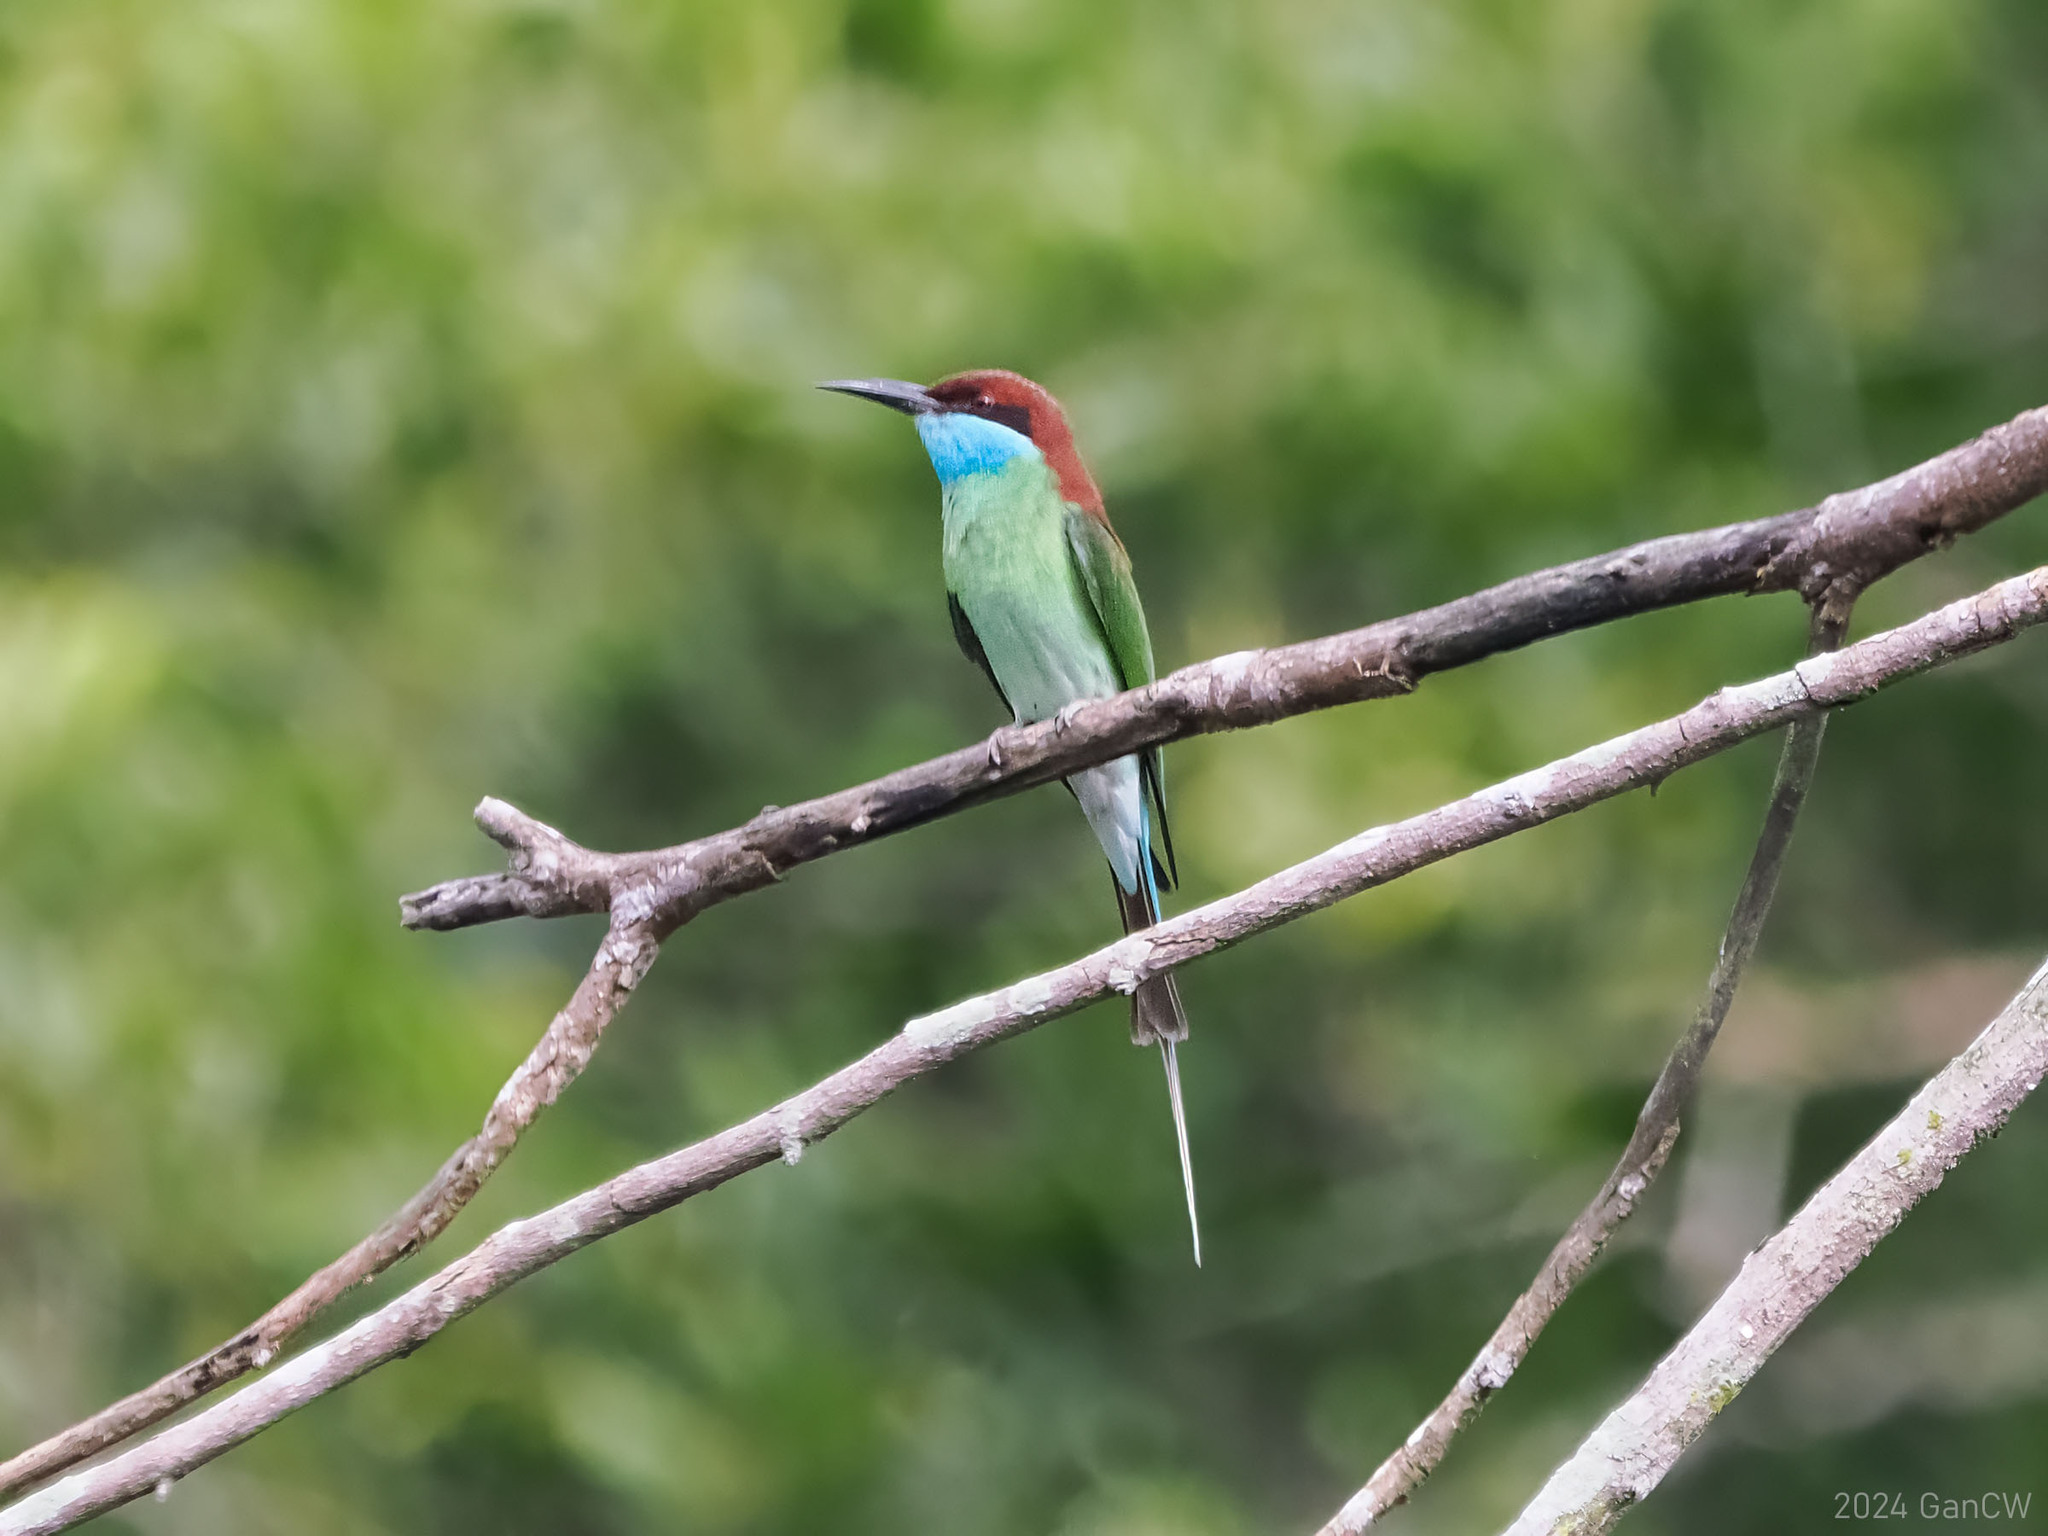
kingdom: Animalia
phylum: Chordata
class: Aves
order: Coraciiformes
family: Meropidae
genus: Merops
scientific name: Merops viridis
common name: Blue-throated bee-eater
